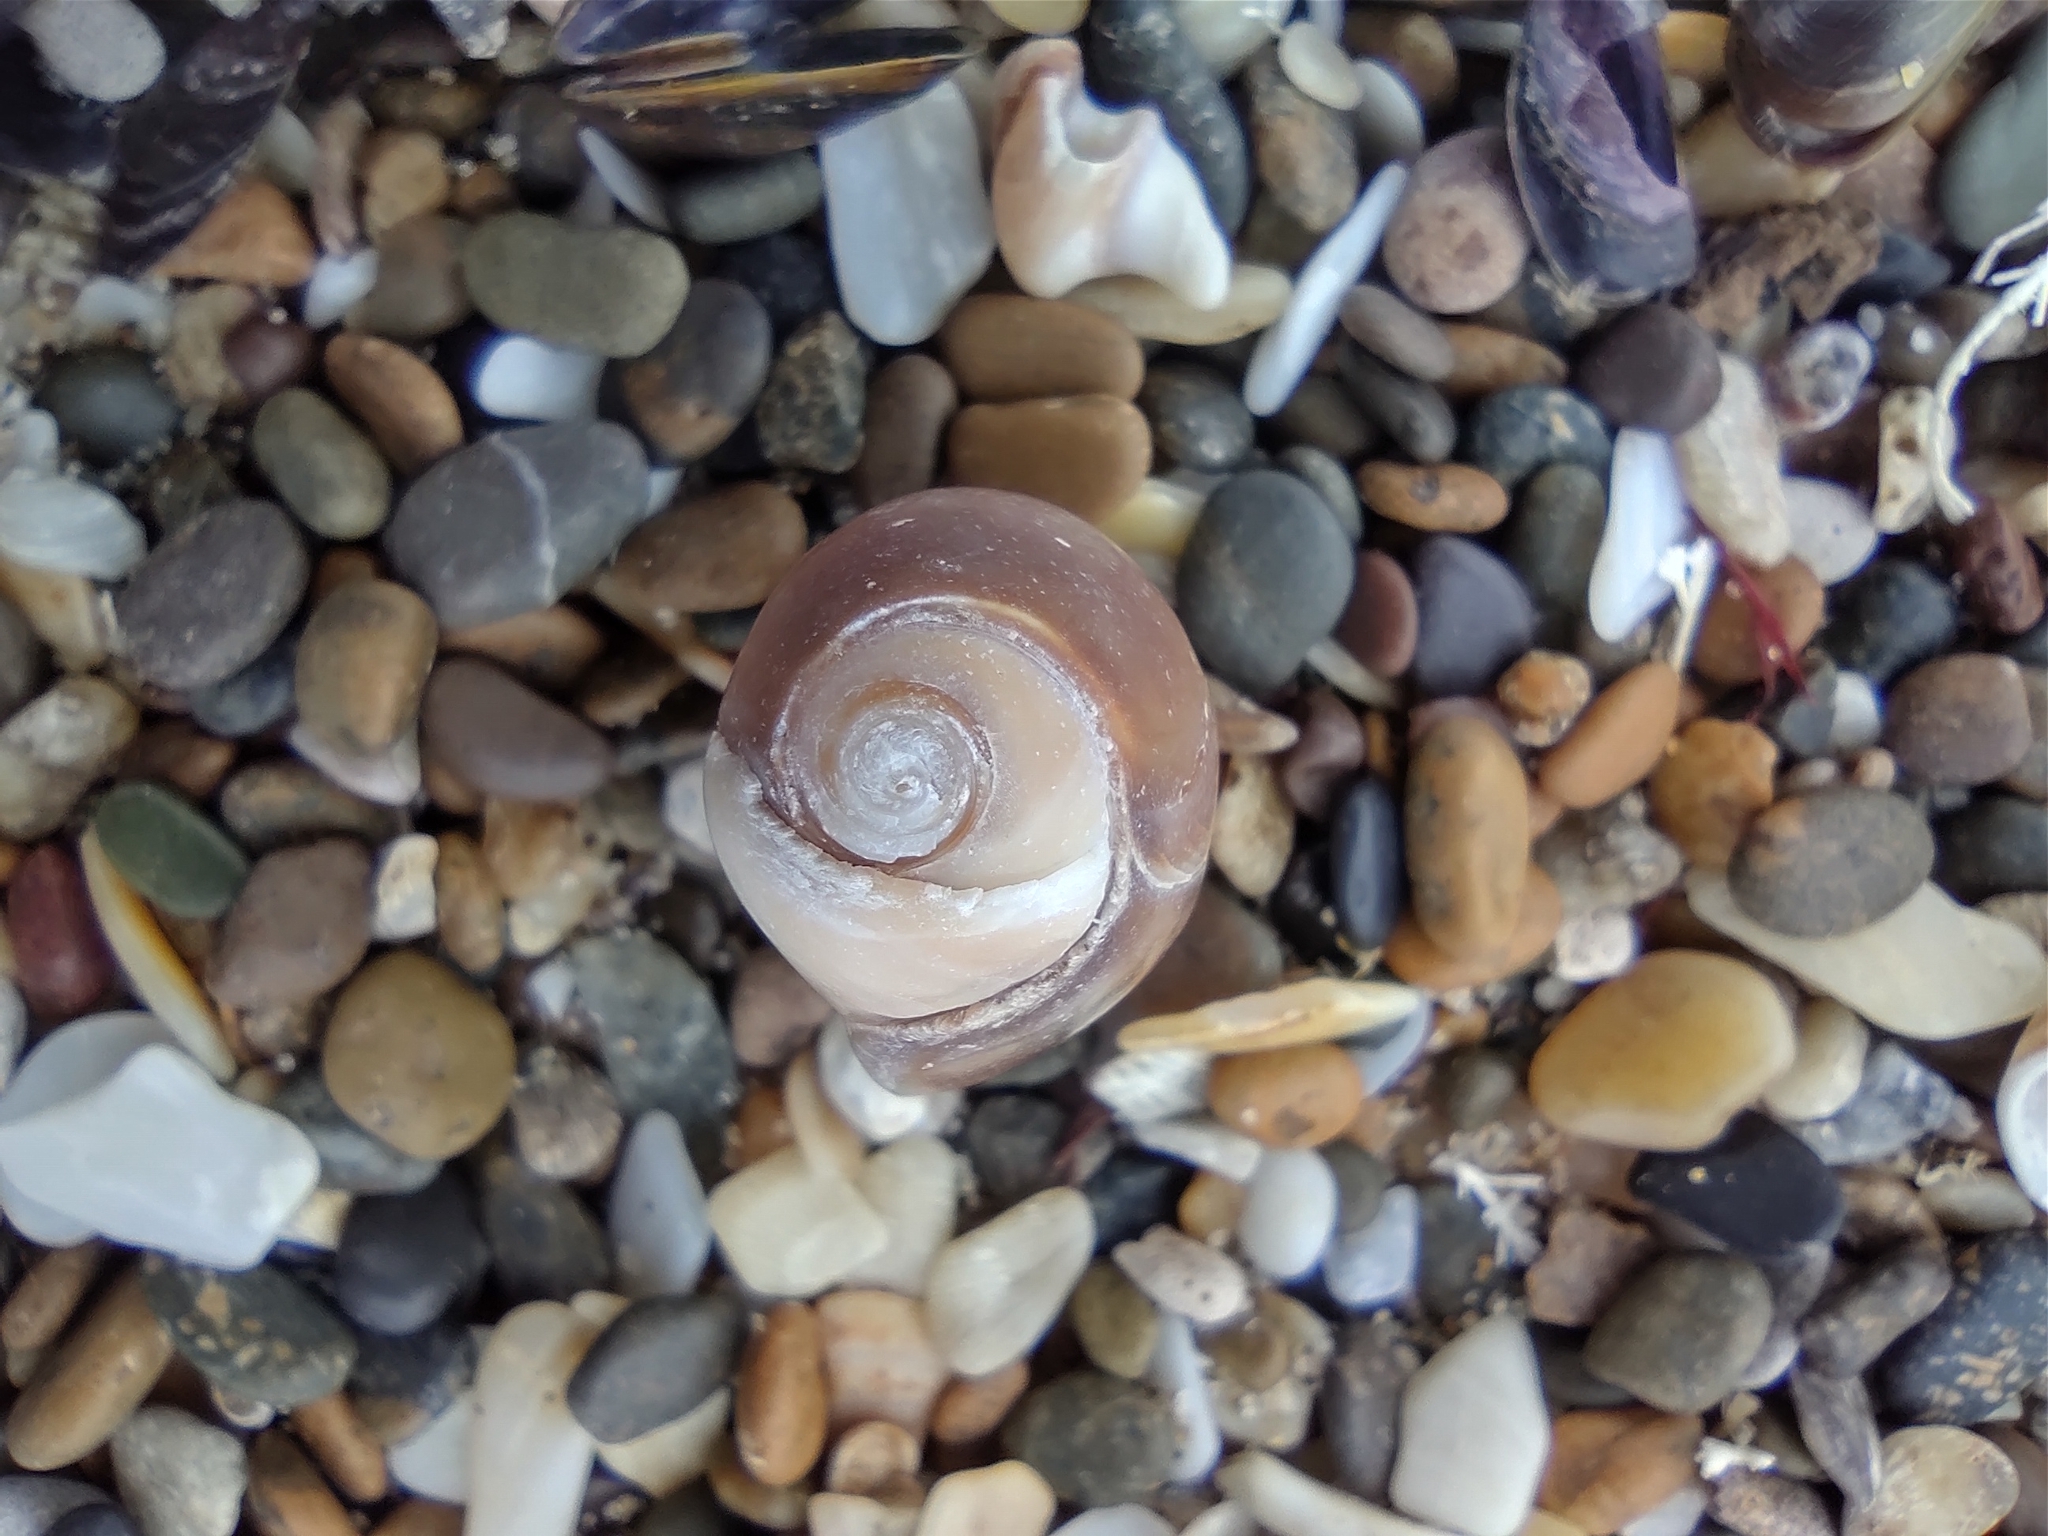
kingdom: Animalia
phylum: Mollusca
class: Gastropoda
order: Neogastropoda
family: Olividae
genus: Olivancillaria
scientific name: Olivancillaria carcellesi
